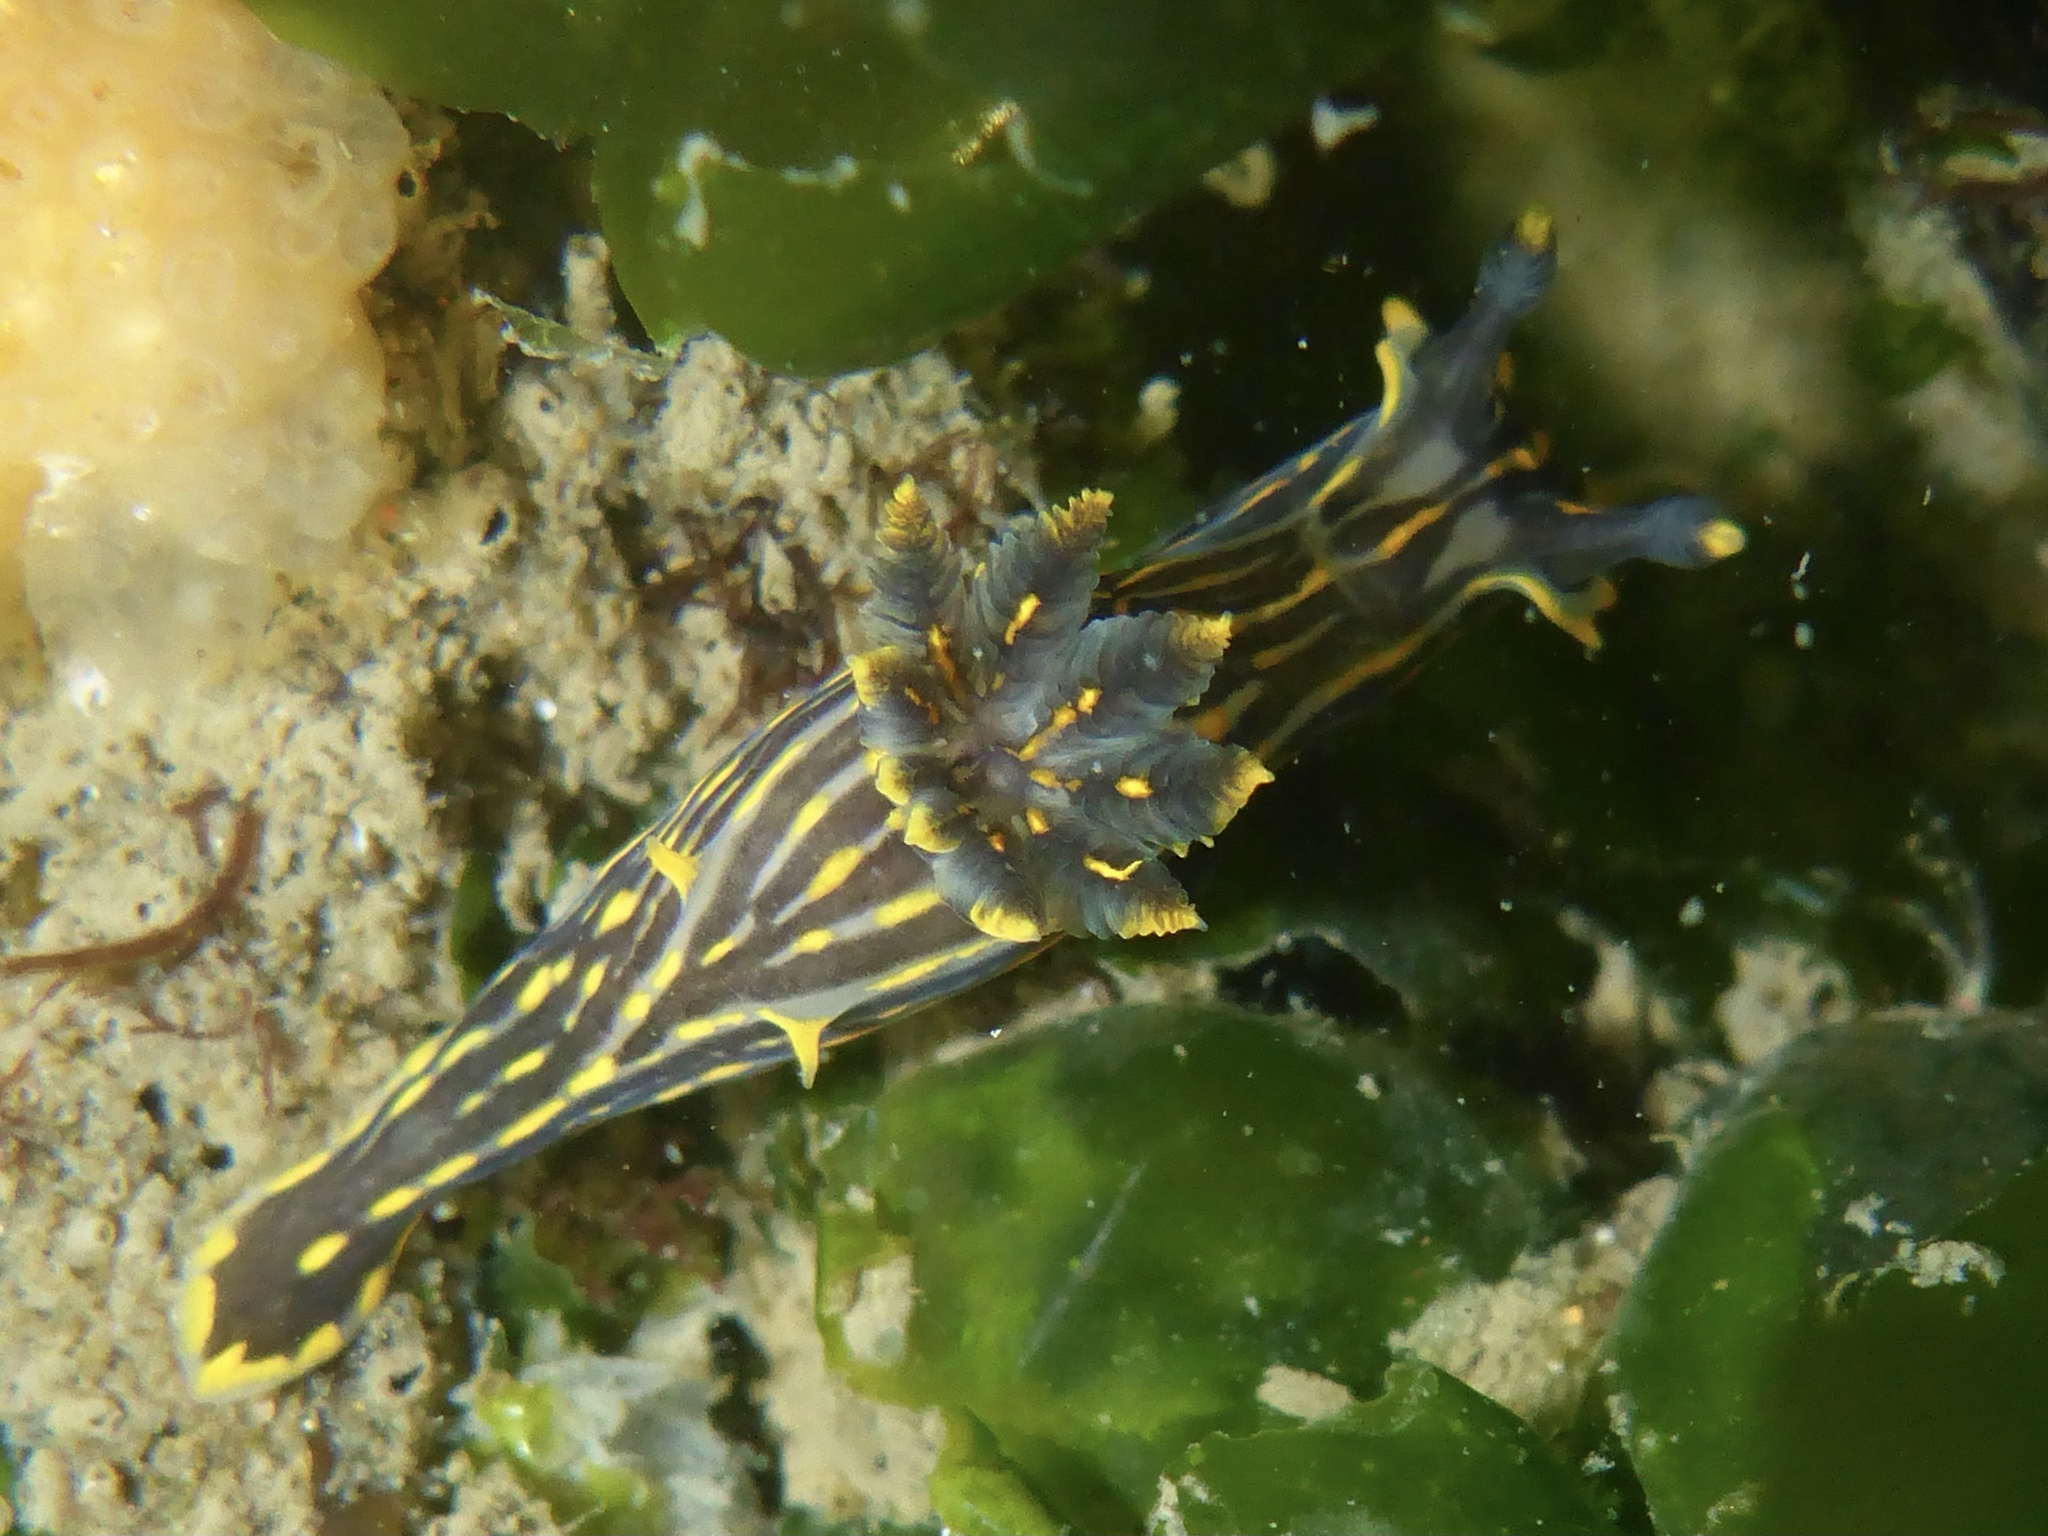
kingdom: Animalia
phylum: Mollusca
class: Gastropoda
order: Nudibranchia
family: Polyceridae
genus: Polycera
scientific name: Polycera atra
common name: Orange-spike polycera
